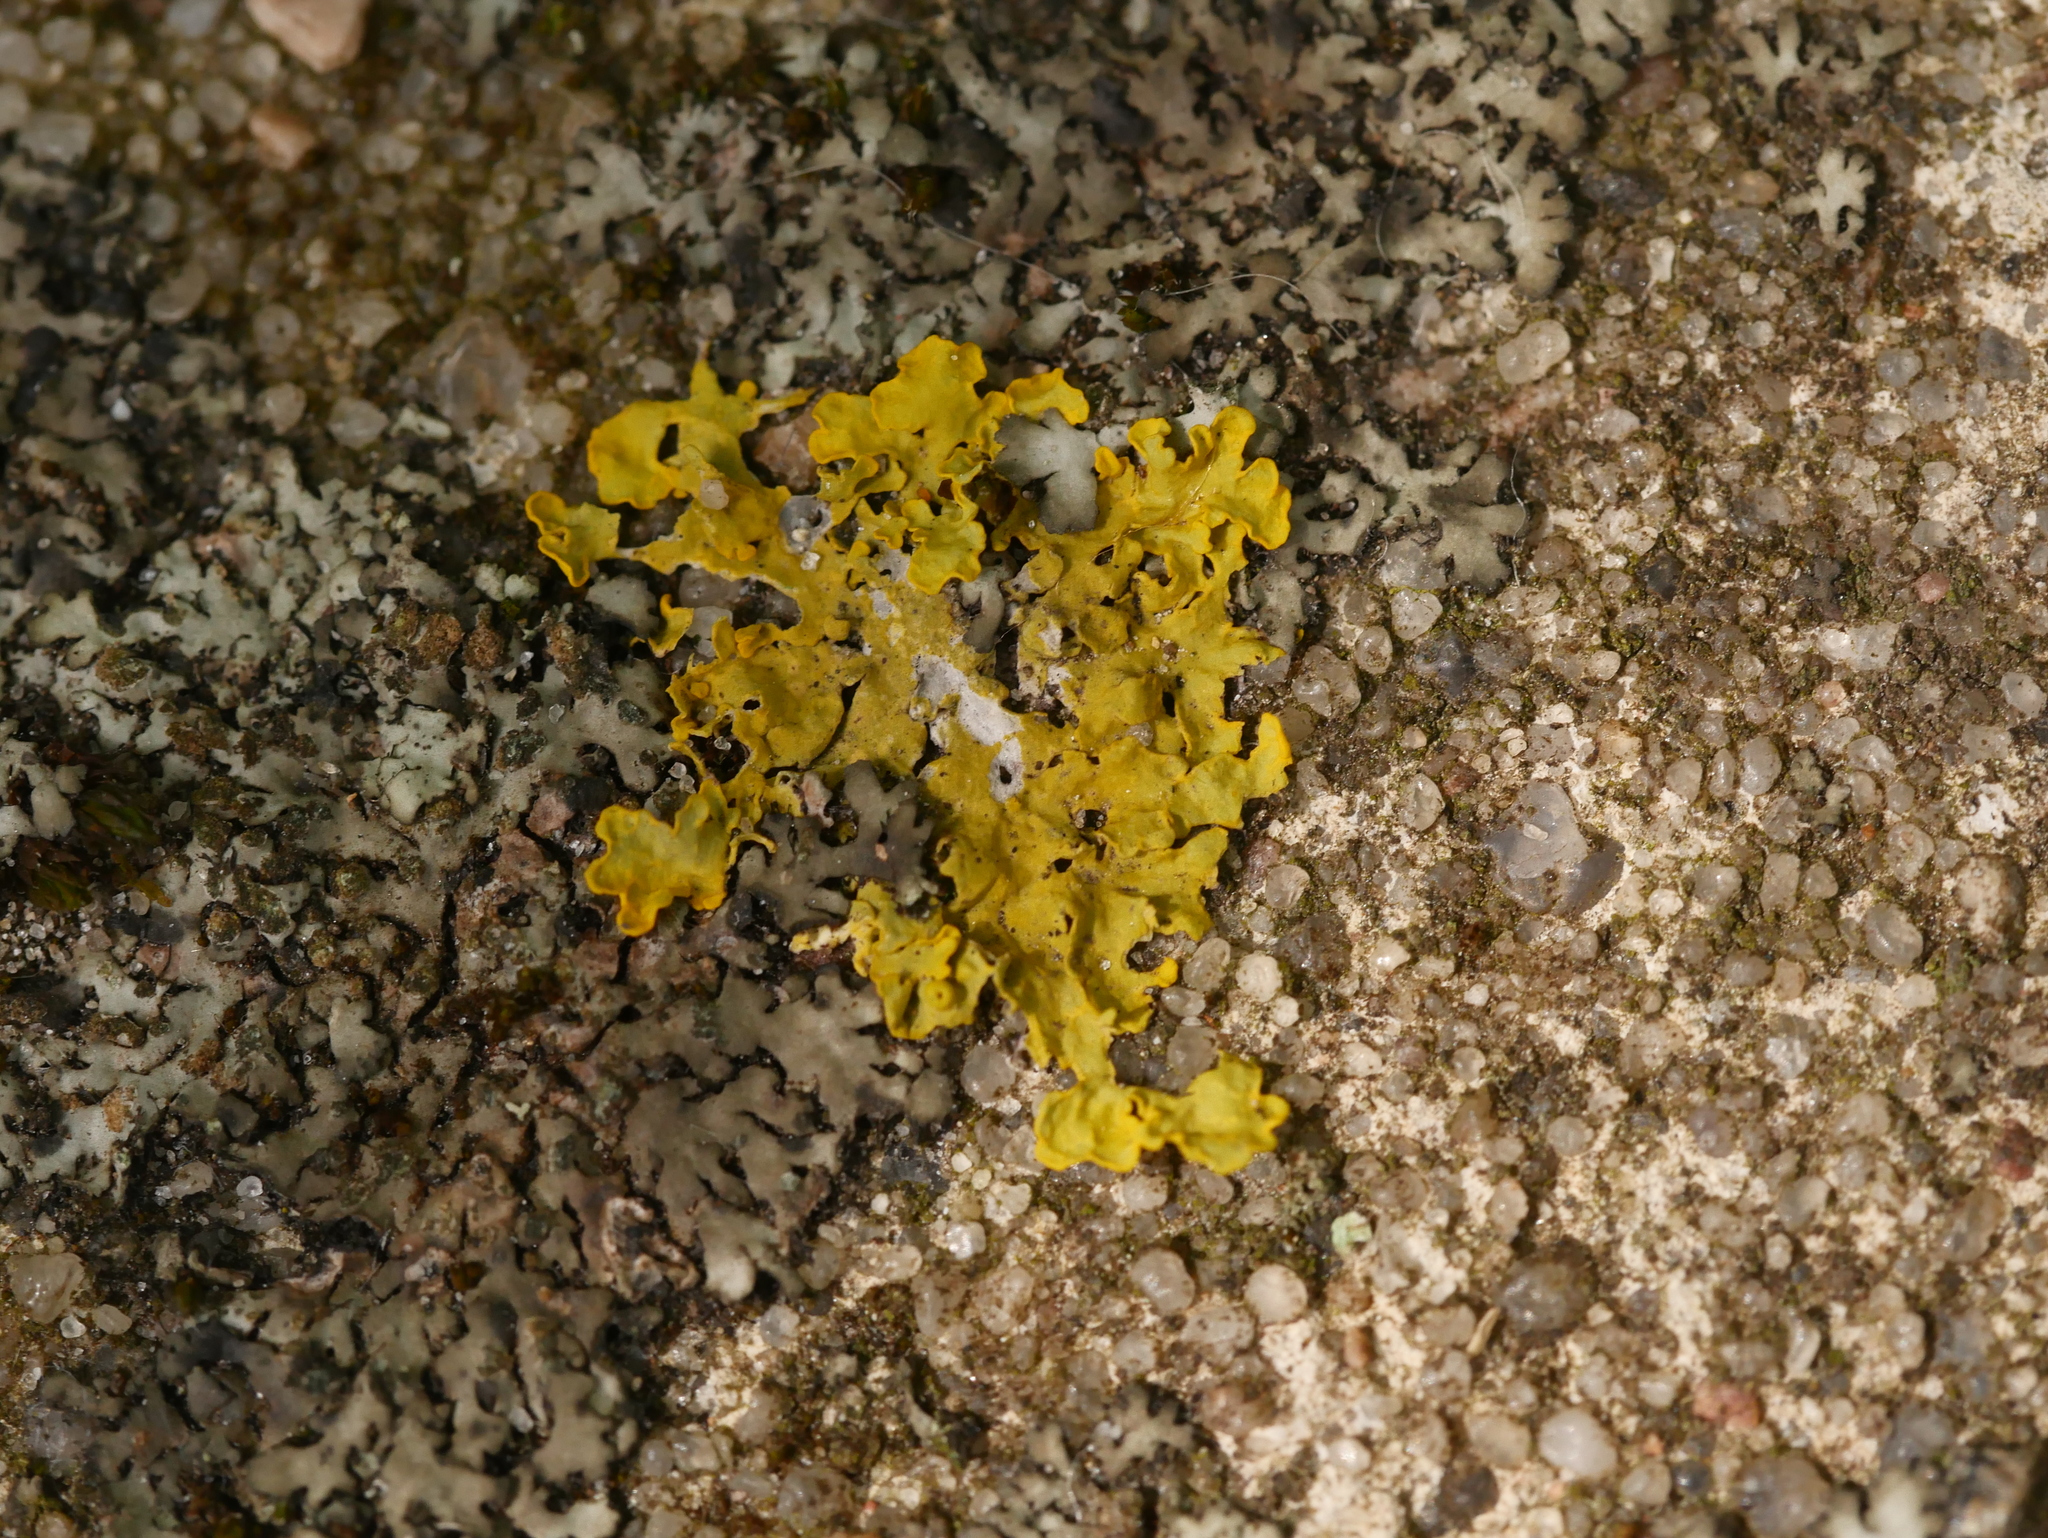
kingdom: Fungi
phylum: Ascomycota
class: Lecanoromycetes
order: Teloschistales
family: Teloschistaceae
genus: Xanthoria
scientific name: Xanthoria parietina
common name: Common orange lichen
